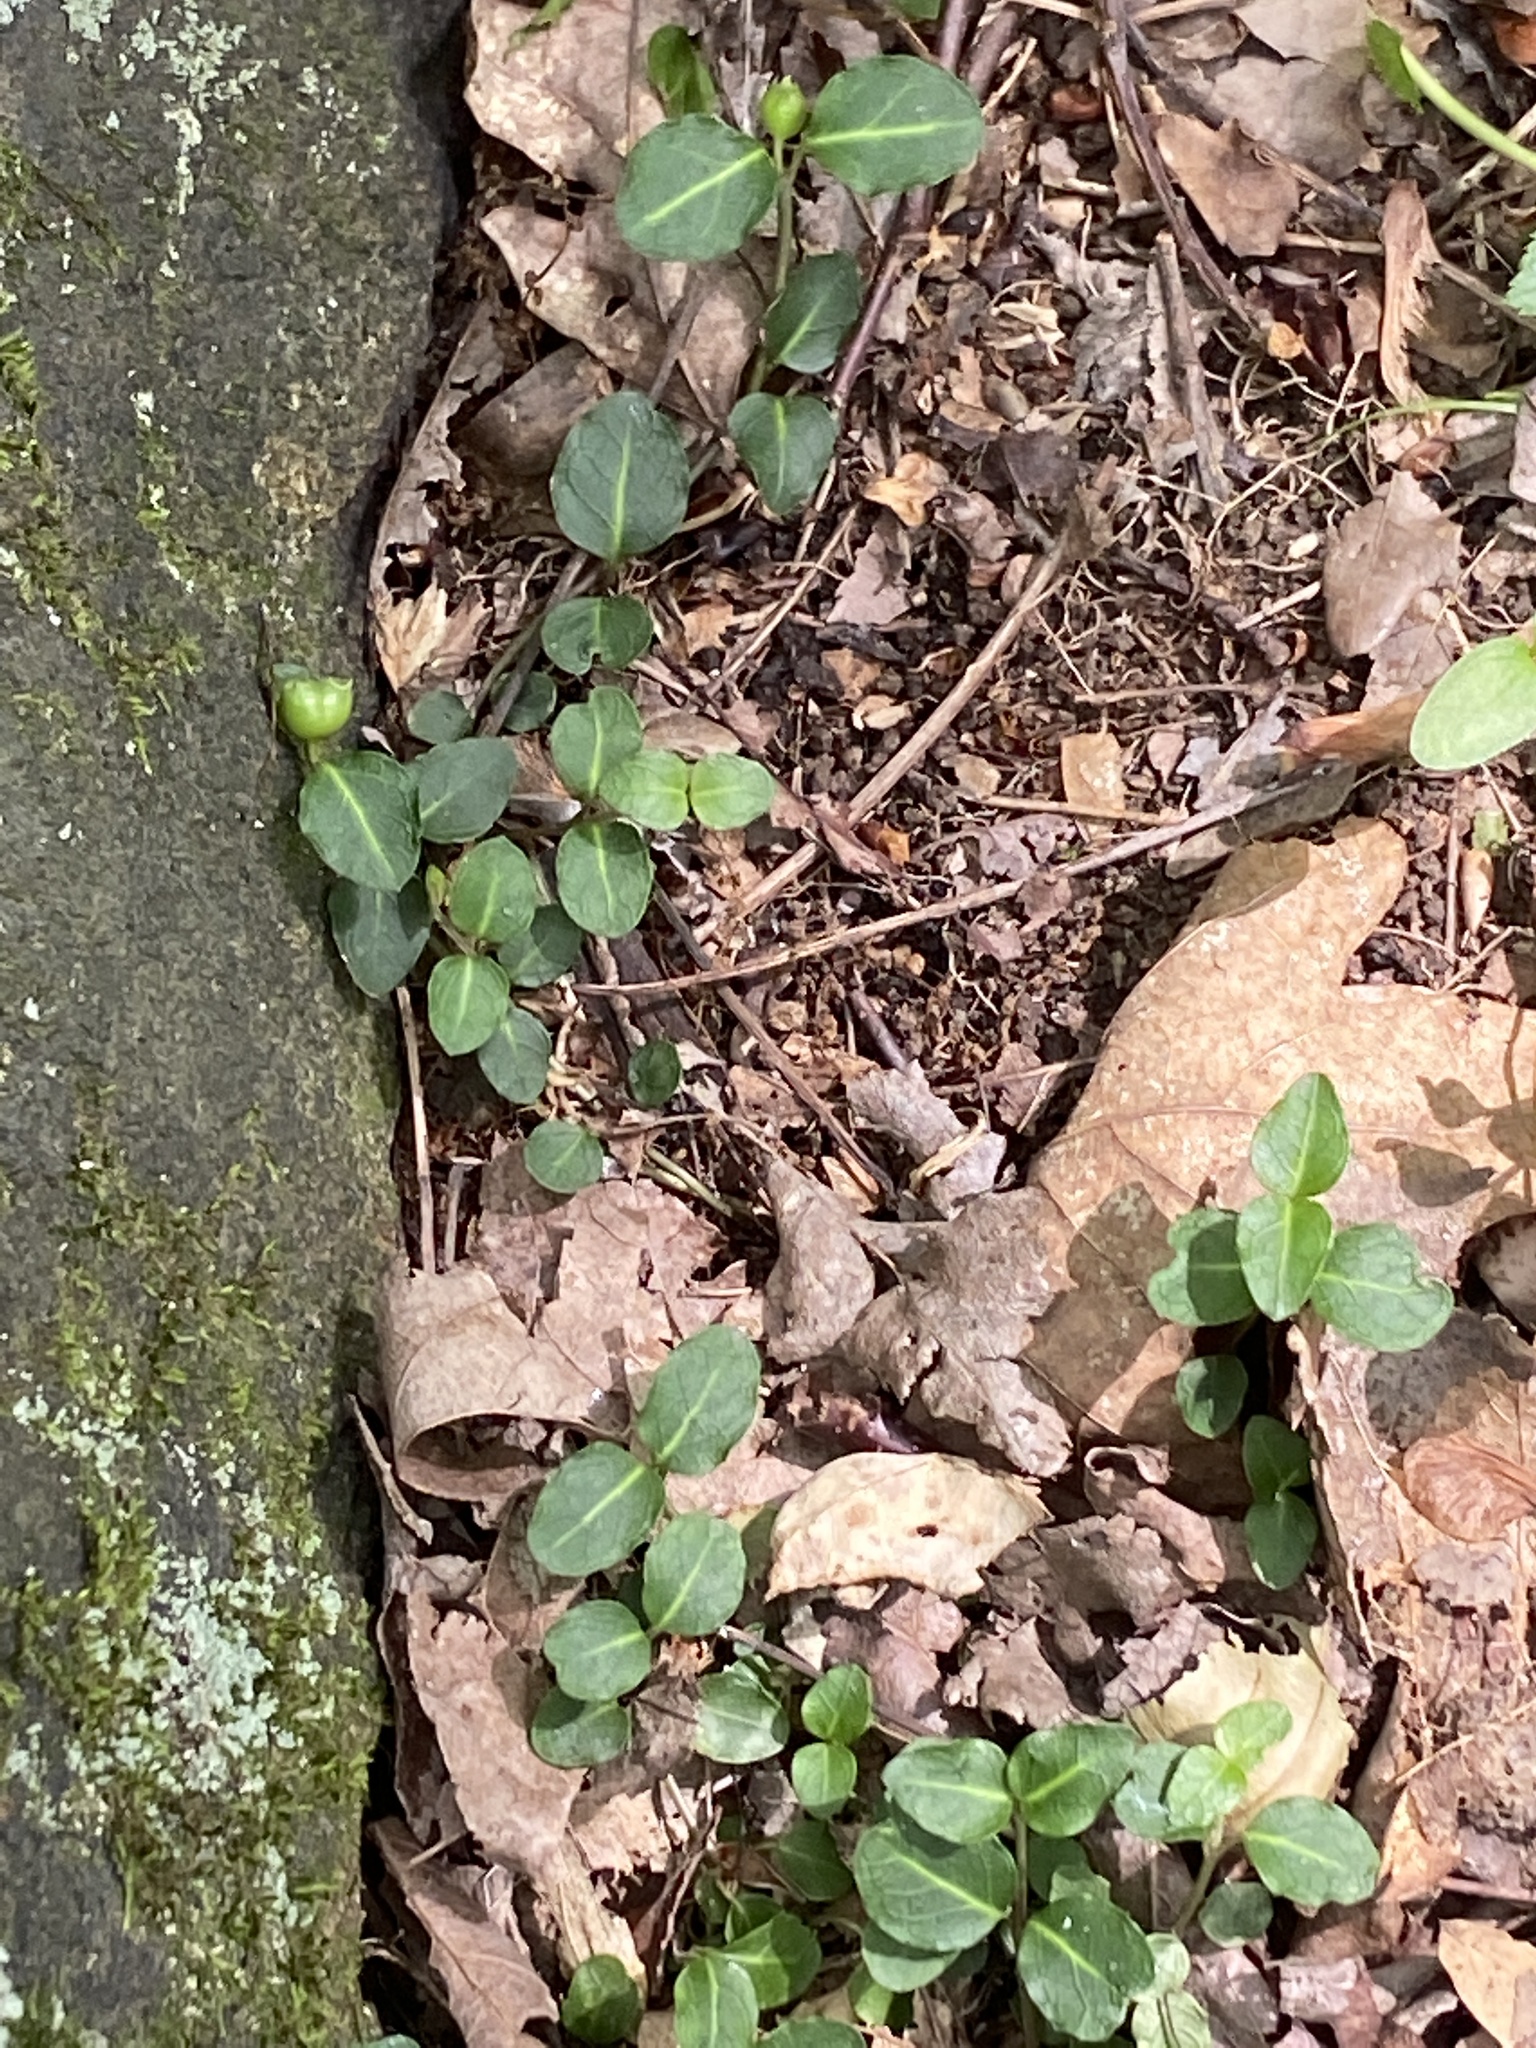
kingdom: Plantae
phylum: Tracheophyta
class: Magnoliopsida
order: Gentianales
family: Rubiaceae
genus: Mitchella
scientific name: Mitchella repens
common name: Partridge-berry
